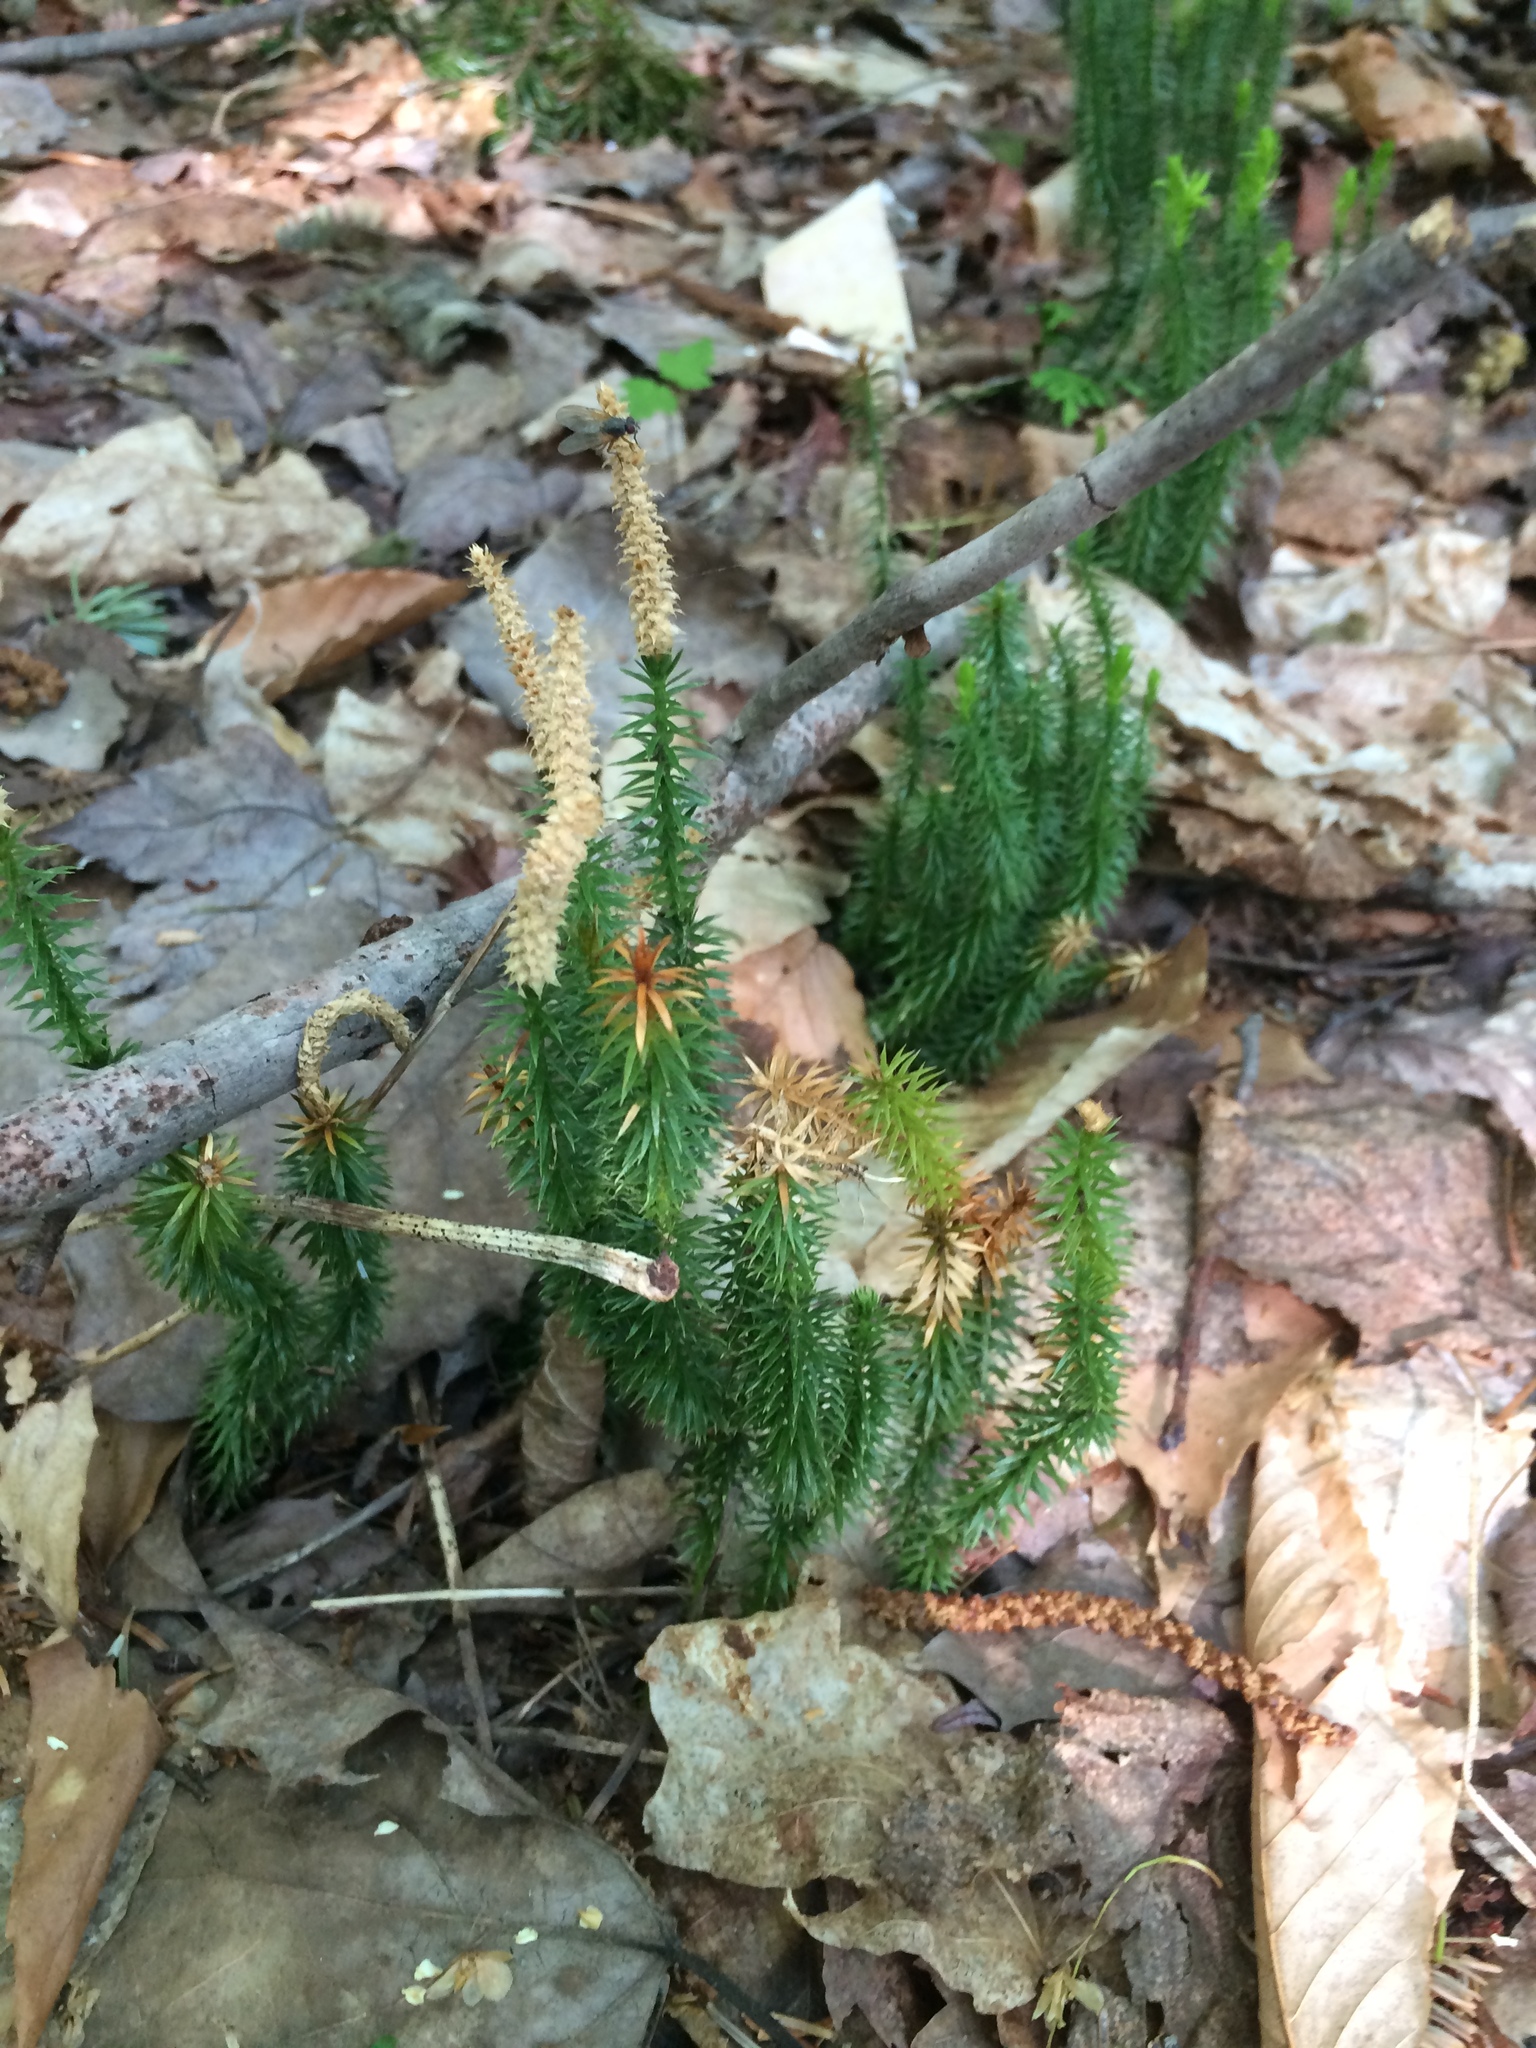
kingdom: Plantae
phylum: Tracheophyta
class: Lycopodiopsida
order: Lycopodiales
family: Lycopodiaceae
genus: Spinulum
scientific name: Spinulum annotinum
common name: Interrupted club-moss
